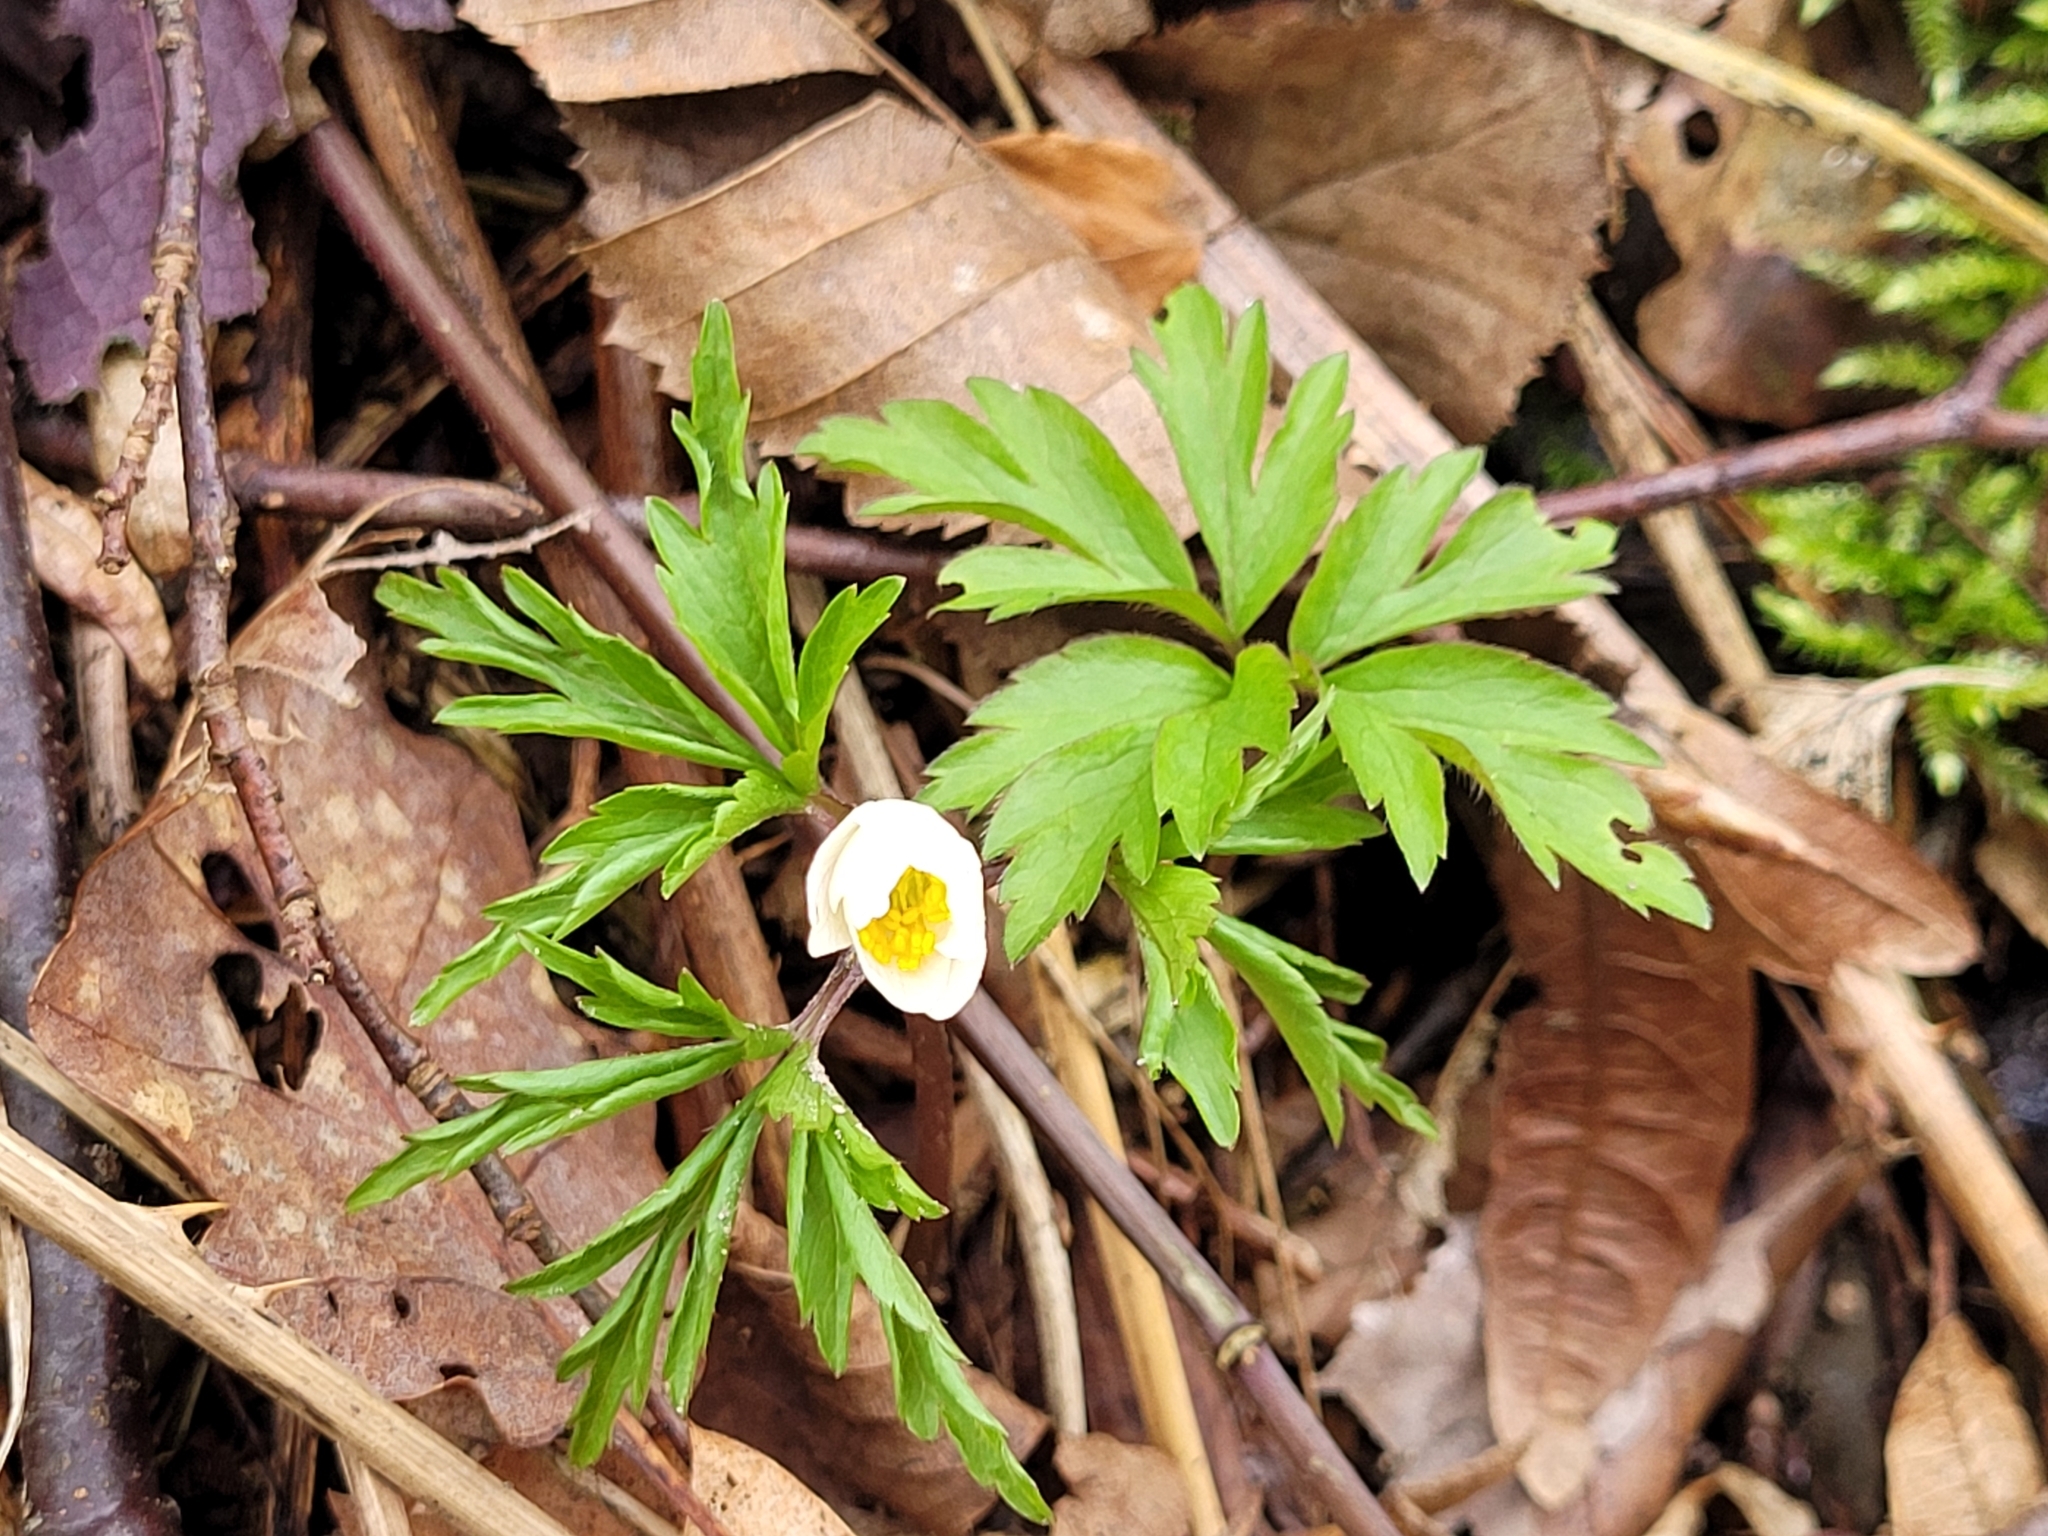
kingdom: Plantae
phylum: Tracheophyta
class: Magnoliopsida
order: Ranunculales
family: Ranunculaceae
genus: Anemone
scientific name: Anemone nemorosa
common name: Wood anemone
